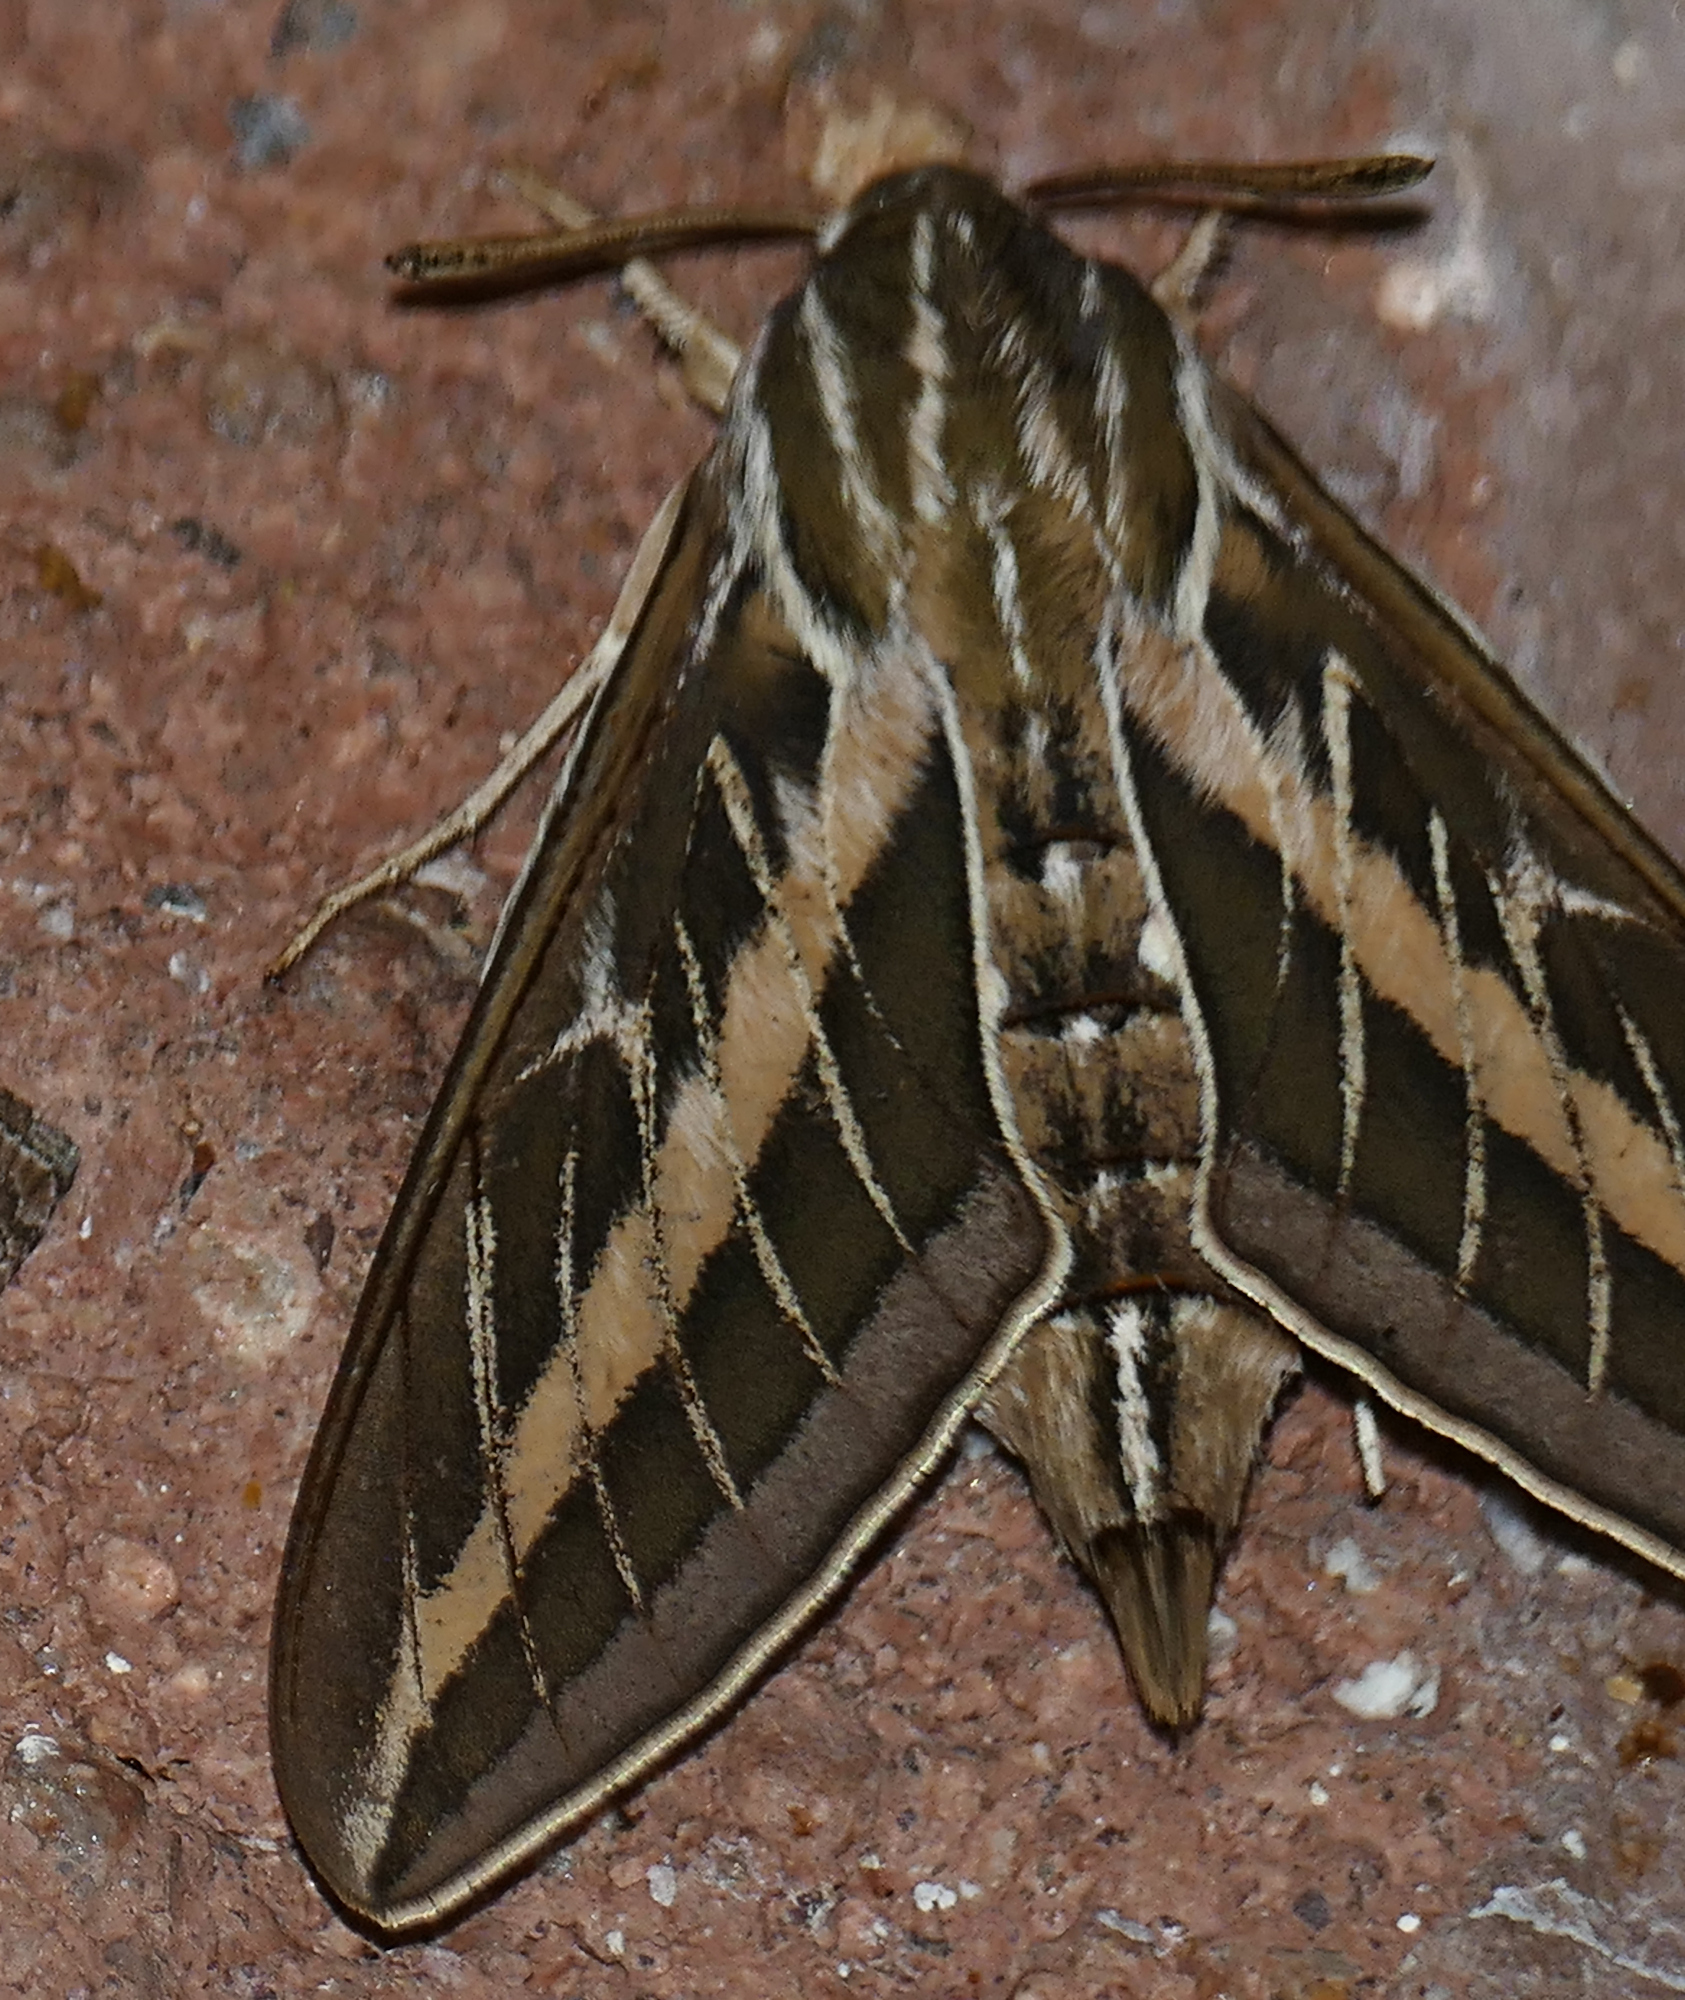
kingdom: Animalia
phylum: Arthropoda
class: Insecta
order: Lepidoptera
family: Sphingidae
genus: Hyles
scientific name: Hyles lineata
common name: White-lined sphinx
